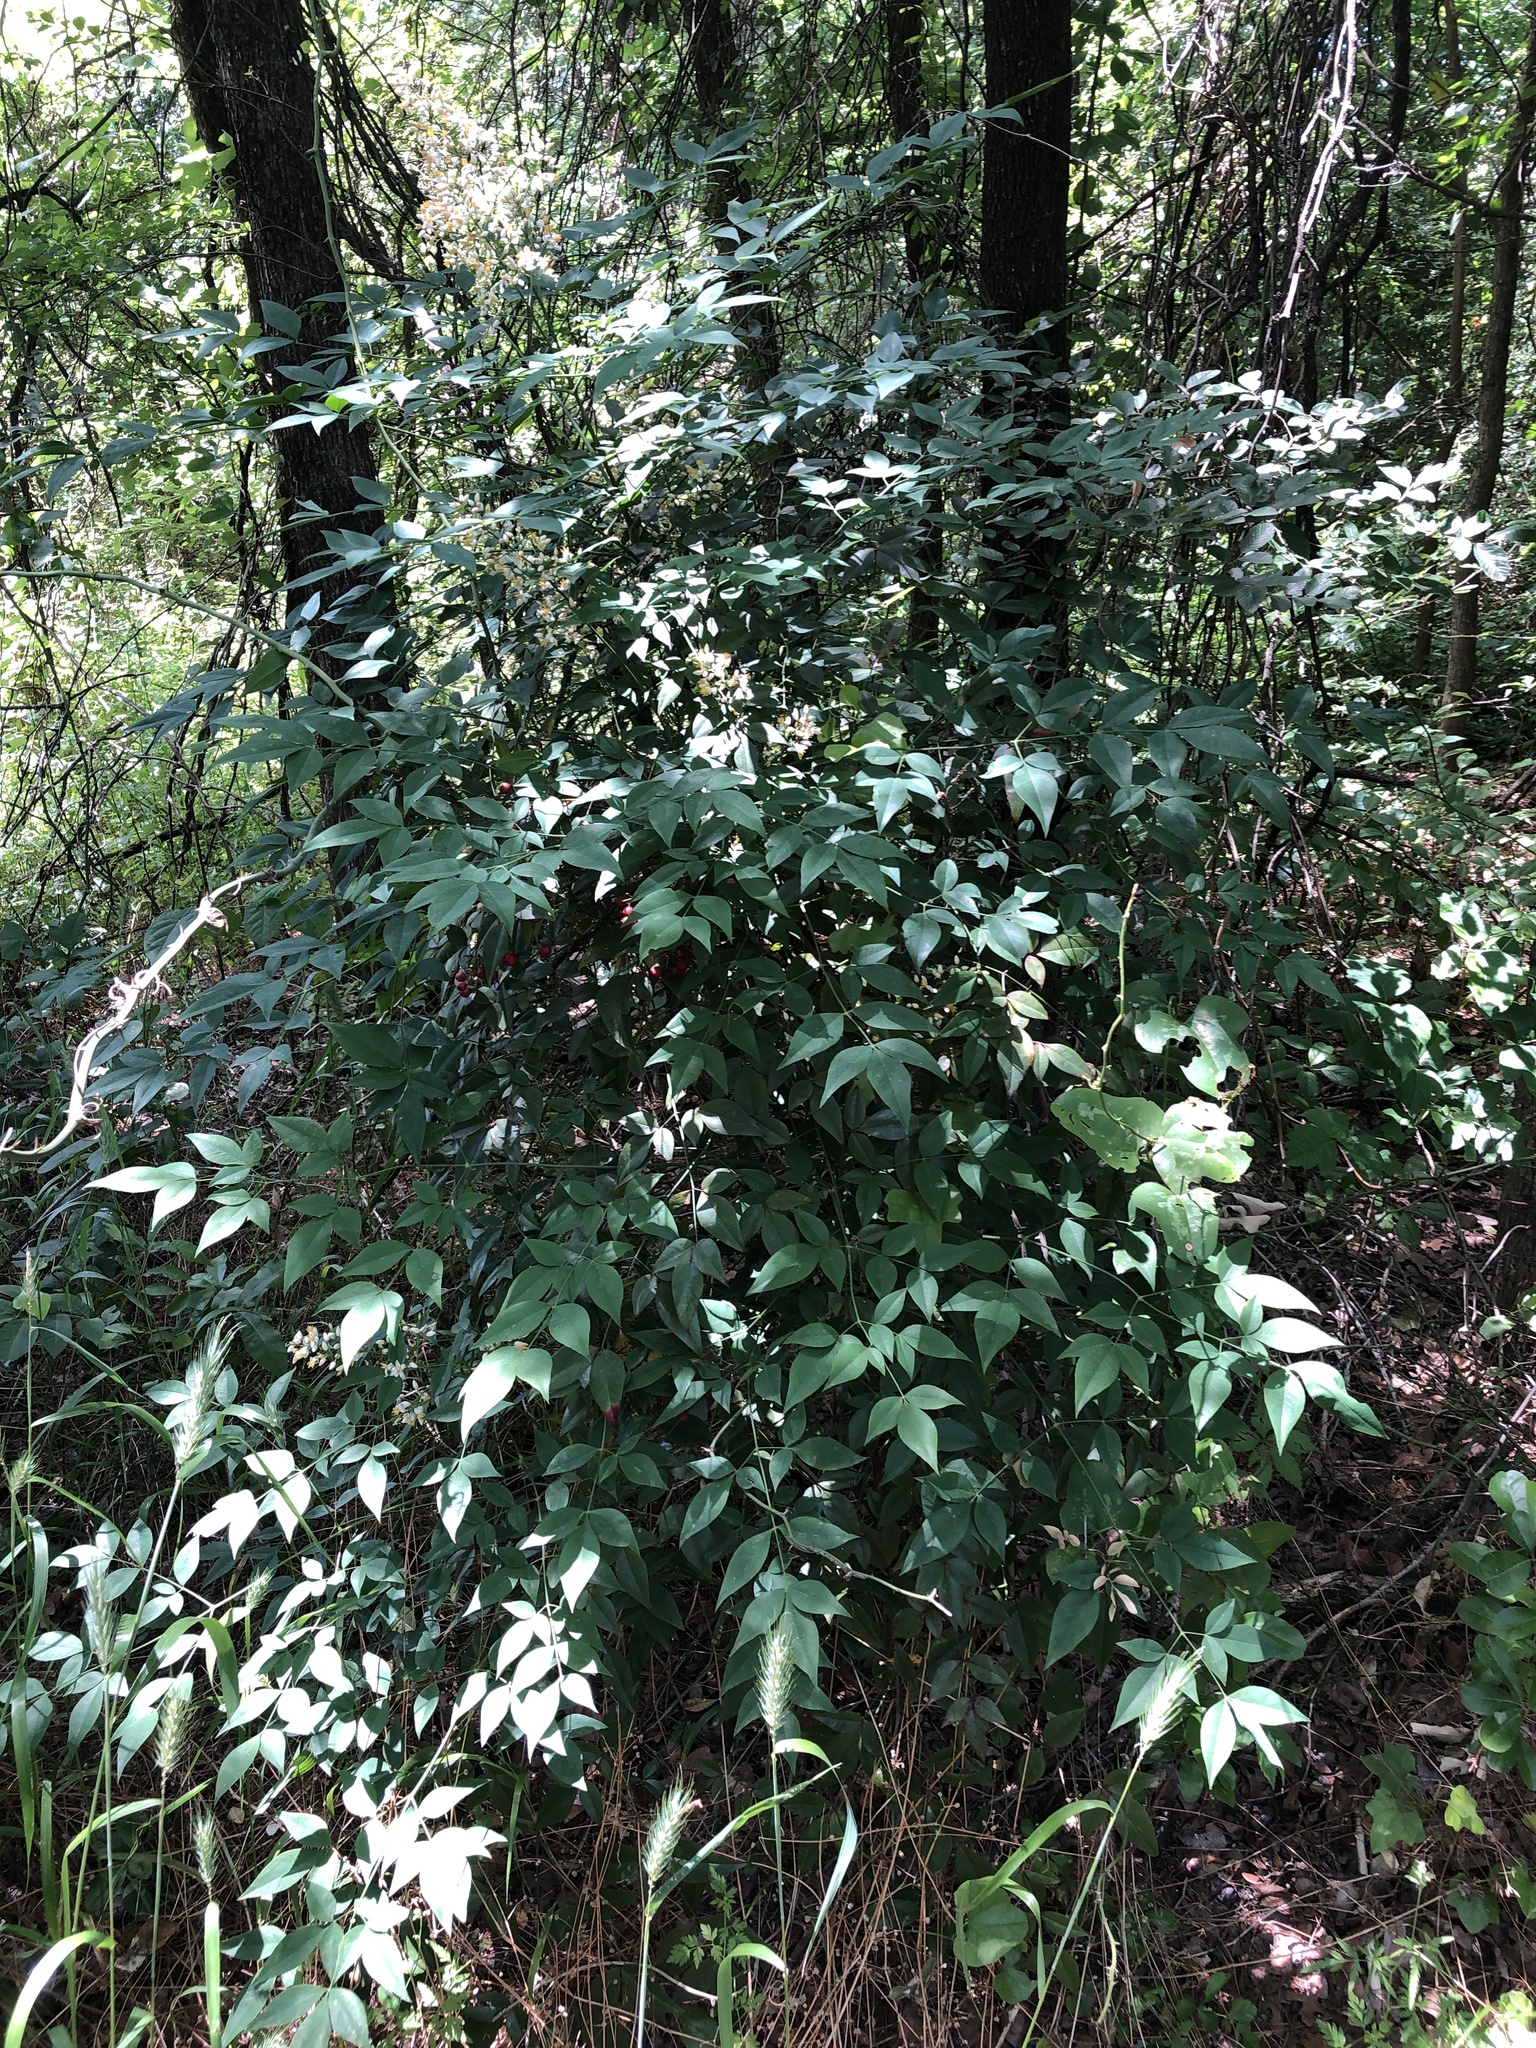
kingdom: Plantae
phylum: Tracheophyta
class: Magnoliopsida
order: Ranunculales
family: Berberidaceae
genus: Nandina
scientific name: Nandina domestica
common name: Sacred bamboo
